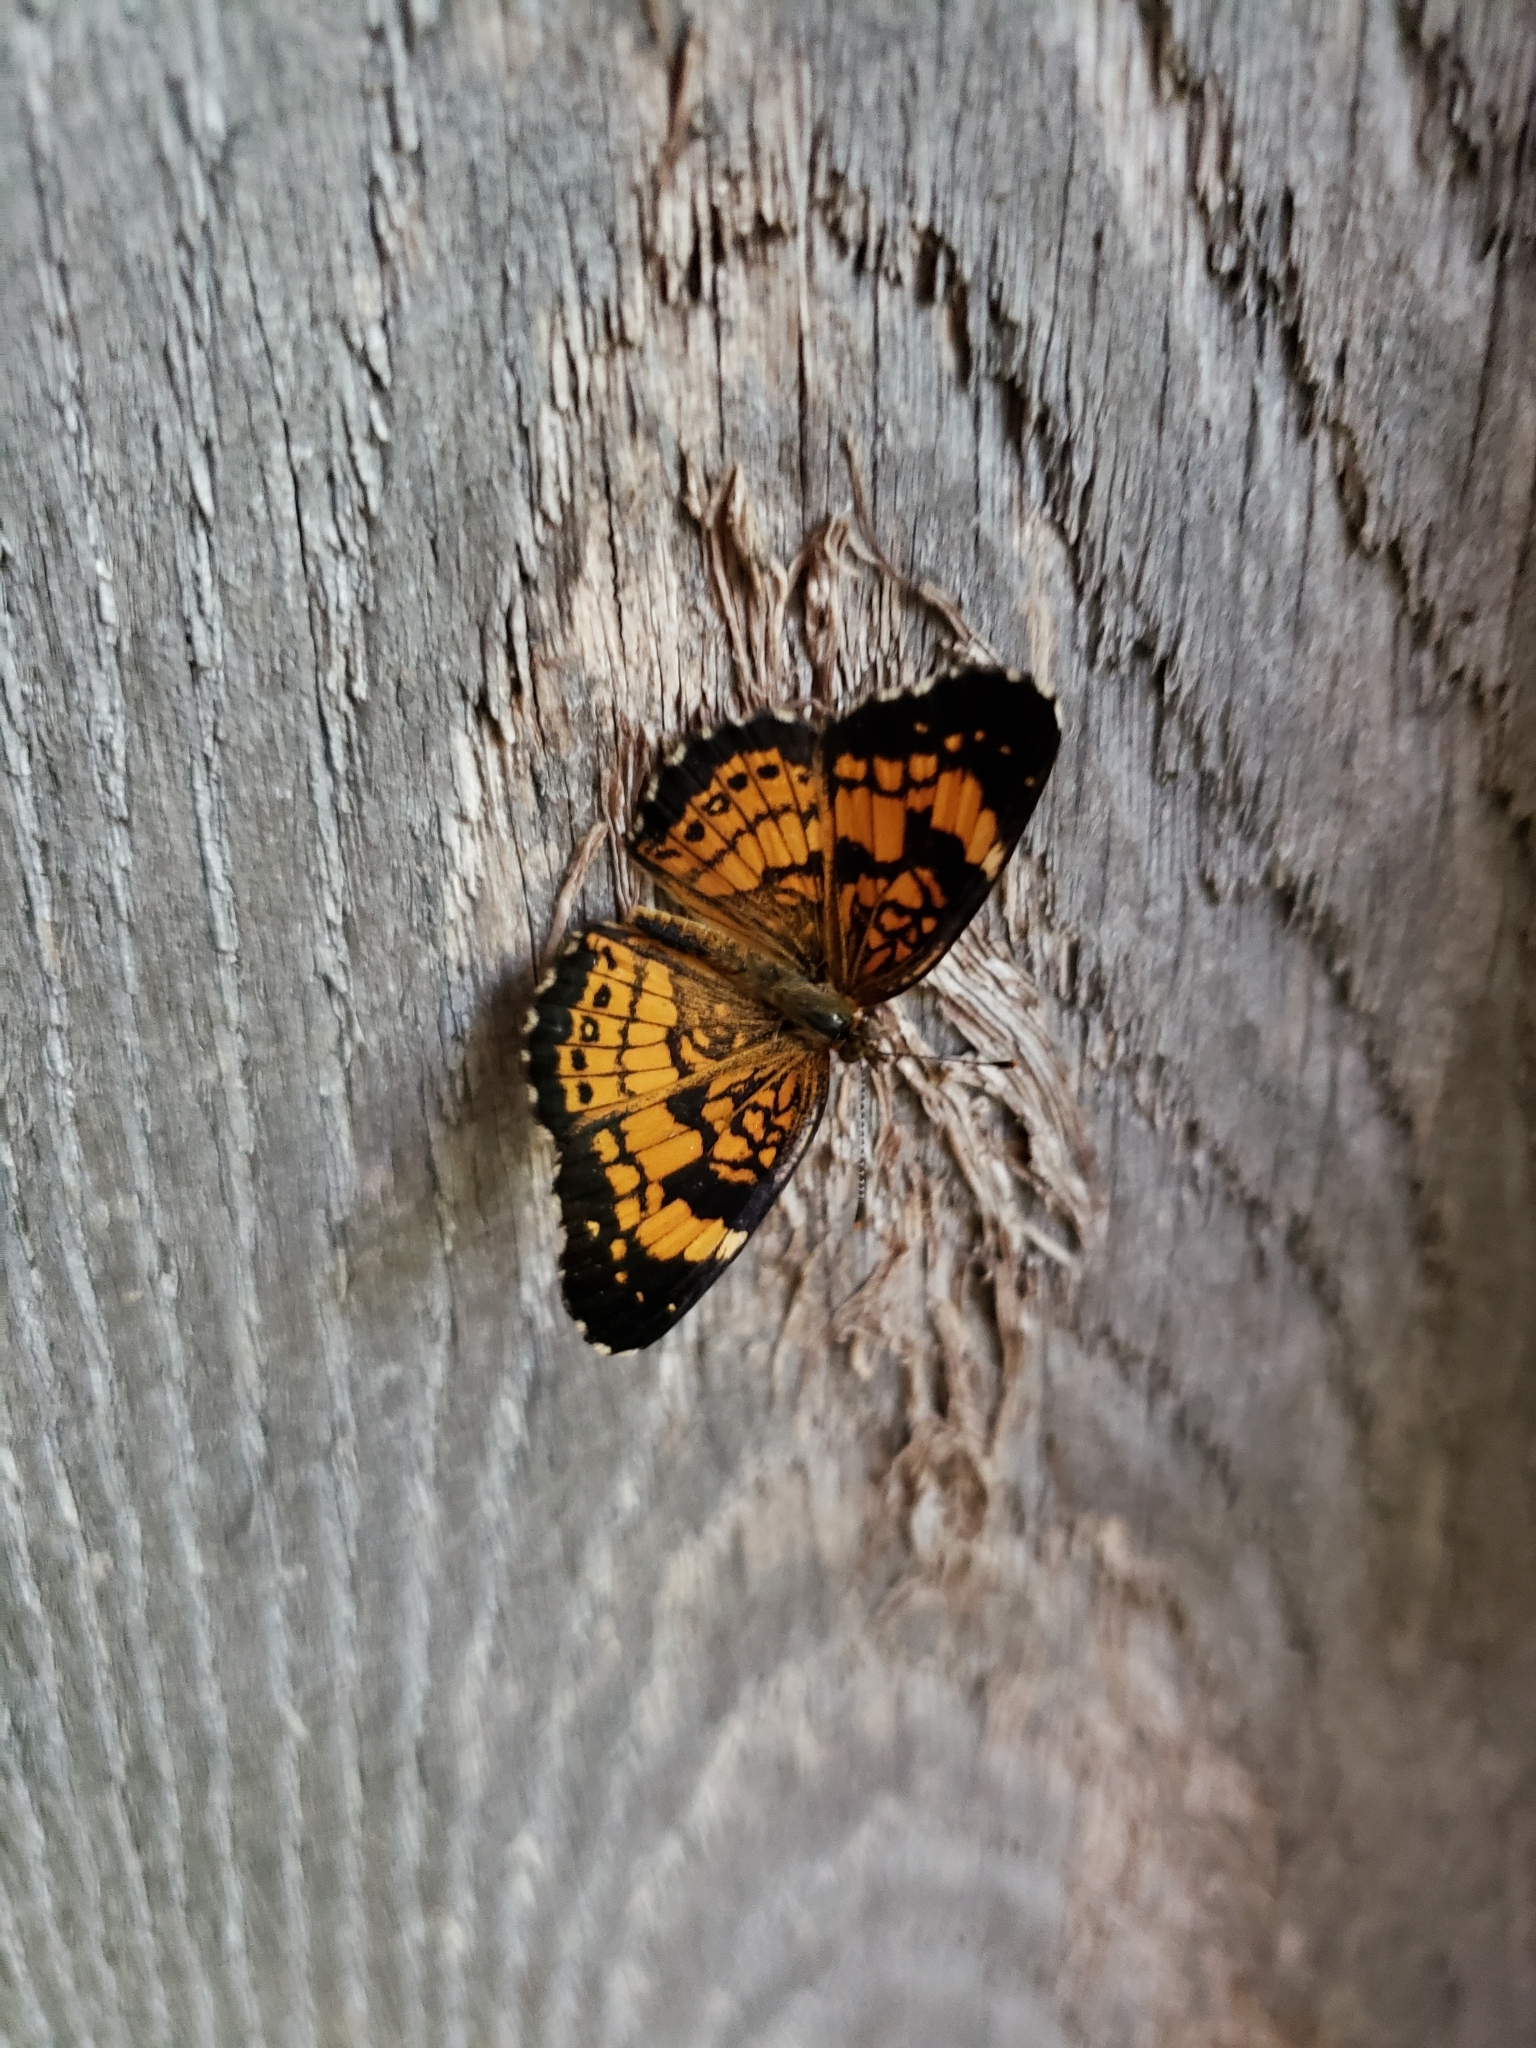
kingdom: Animalia
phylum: Arthropoda
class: Insecta
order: Lepidoptera
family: Nymphalidae
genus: Chlosyne
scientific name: Chlosyne nycteis
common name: Silvery checkerspot
